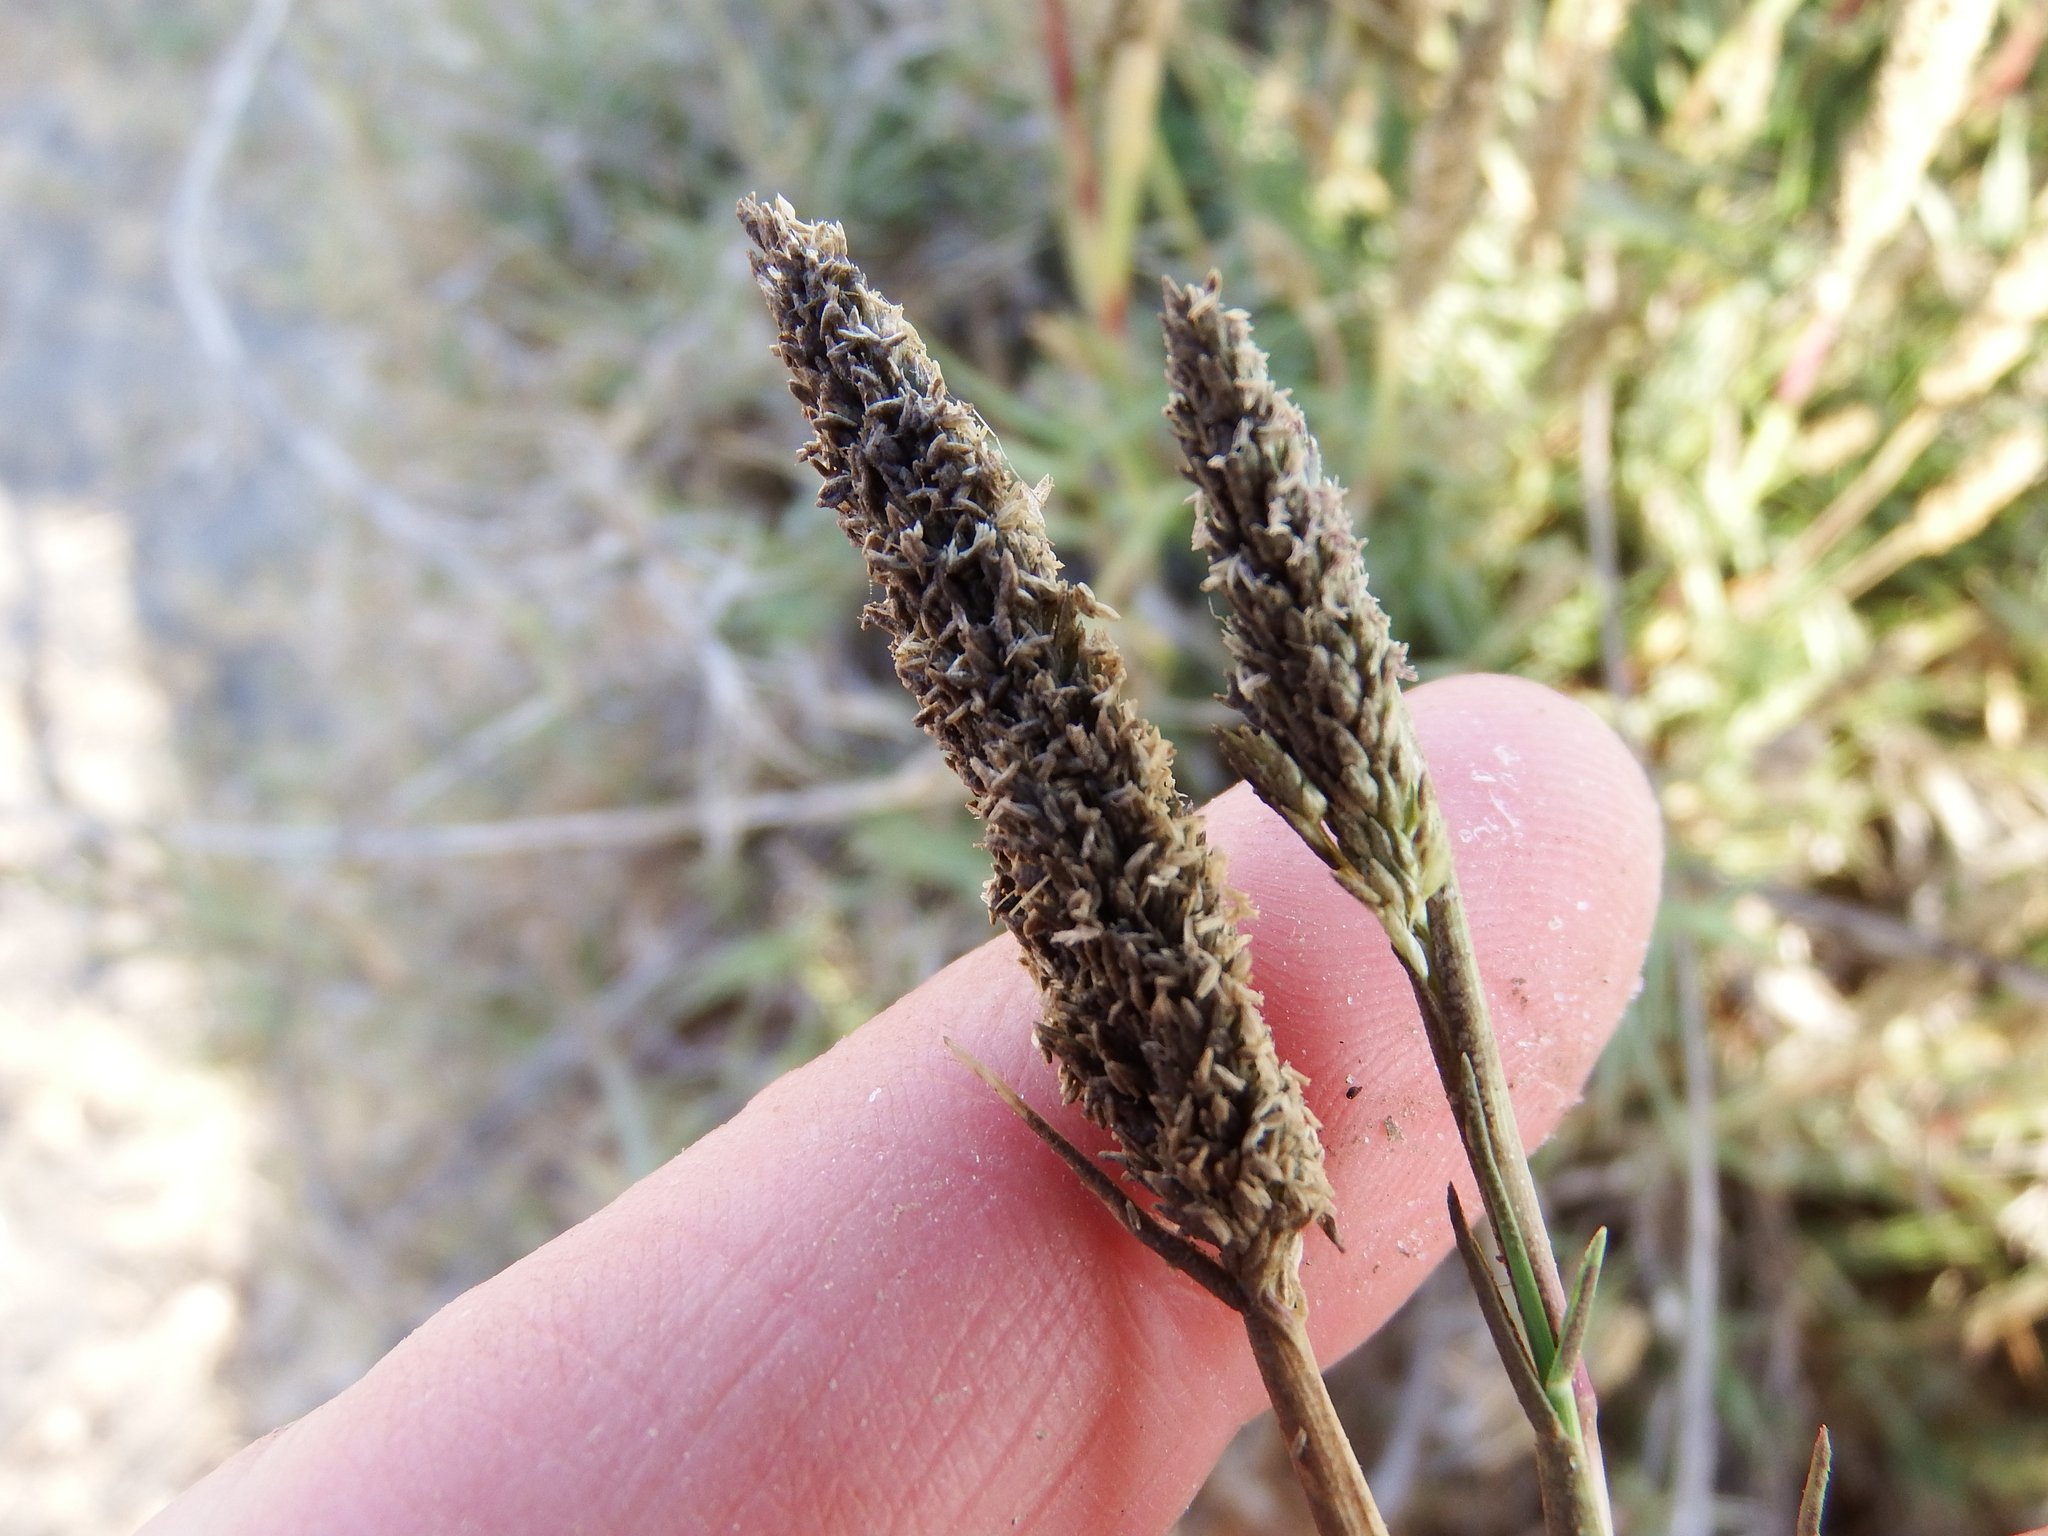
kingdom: Plantae
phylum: Tracheophyta
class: Liliopsida
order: Poales
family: Poaceae
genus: Distichlis
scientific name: Distichlis spicata
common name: Saltgrass
